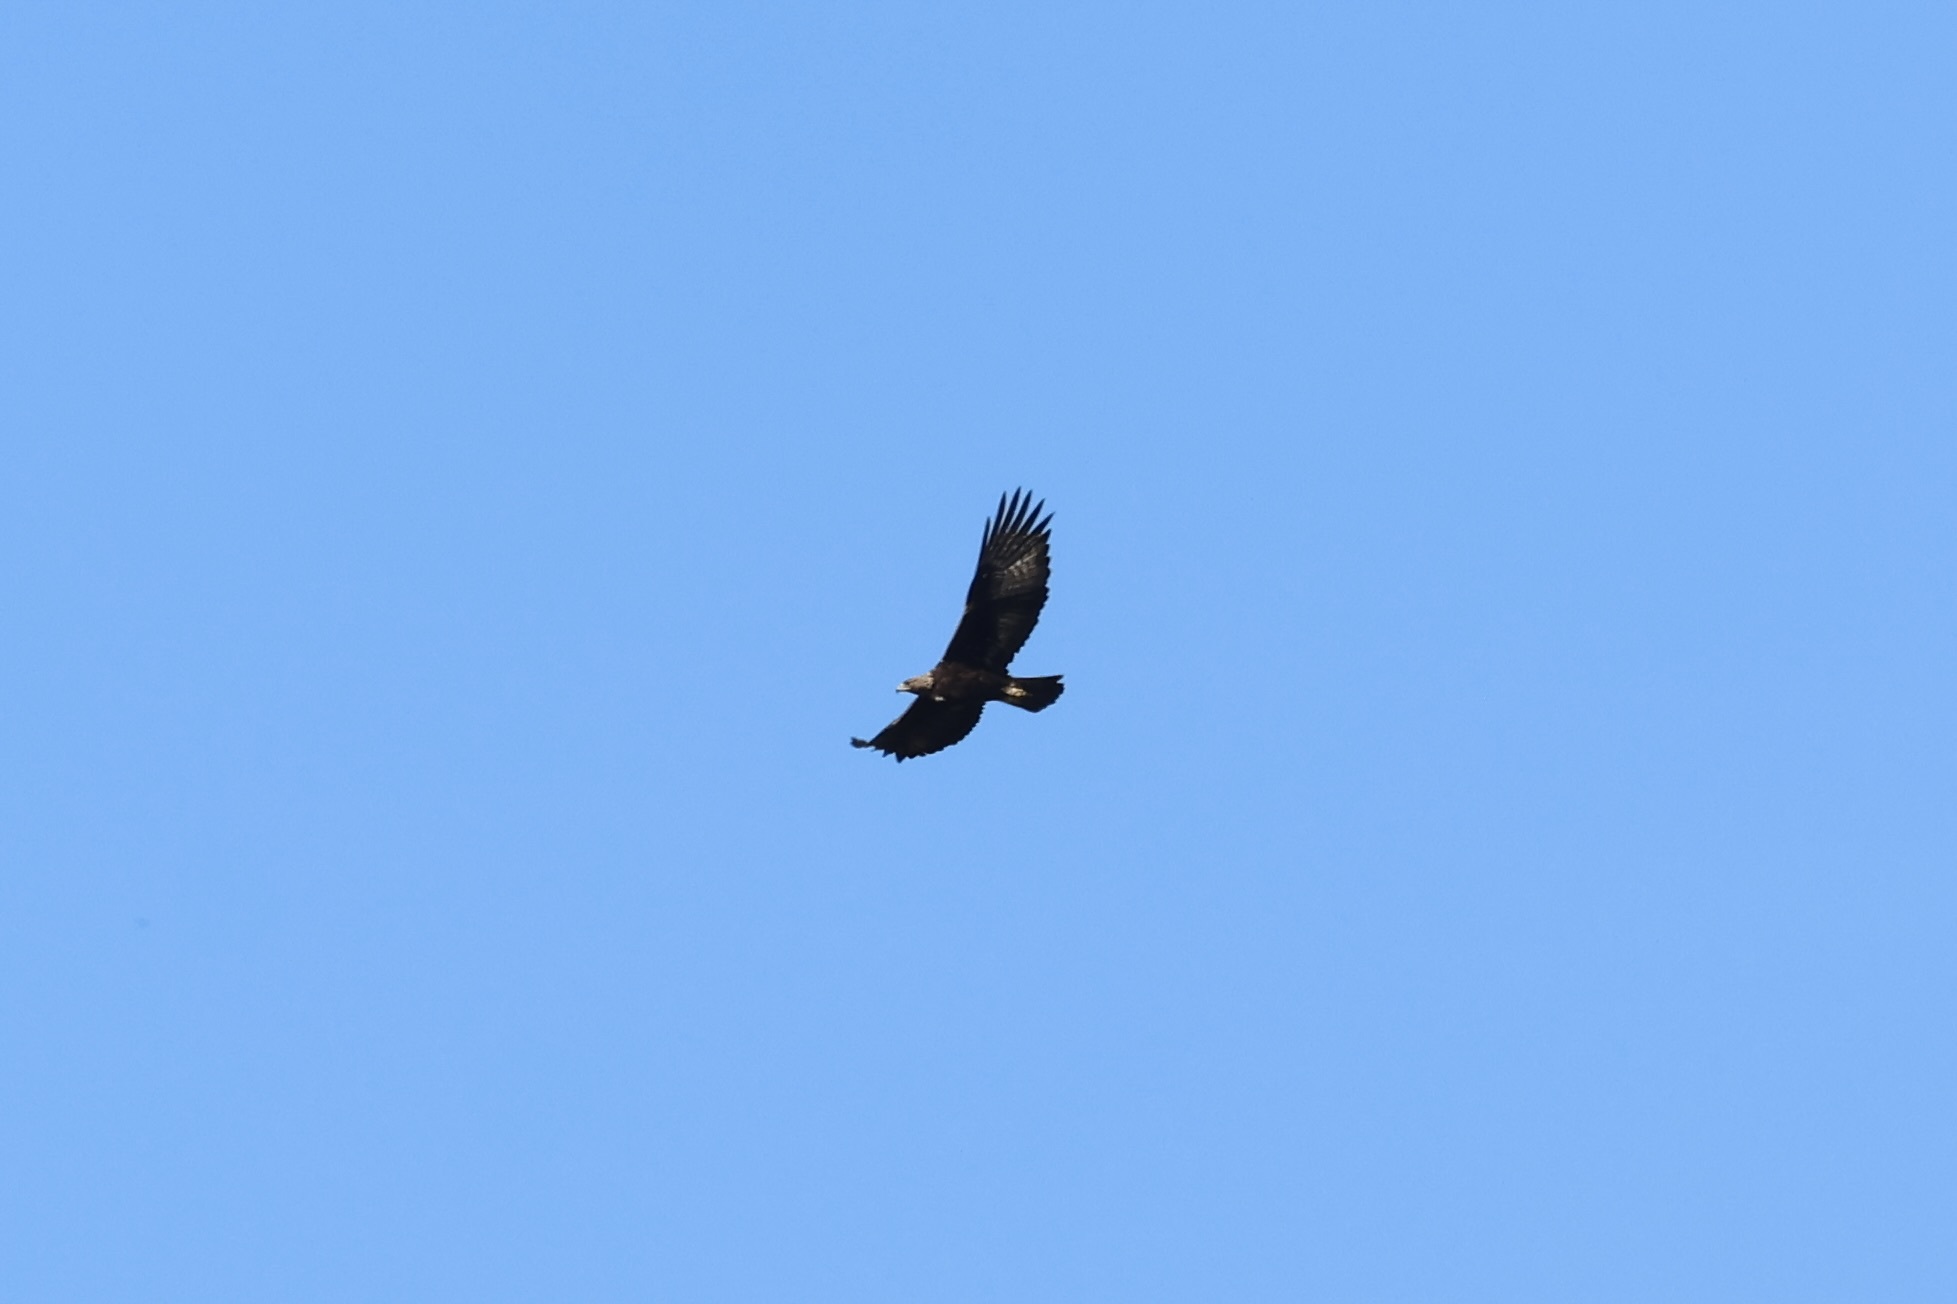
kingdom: Animalia
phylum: Chordata
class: Aves
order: Accipitriformes
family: Accipitridae
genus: Aquila
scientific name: Aquila chrysaetos
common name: Golden eagle
